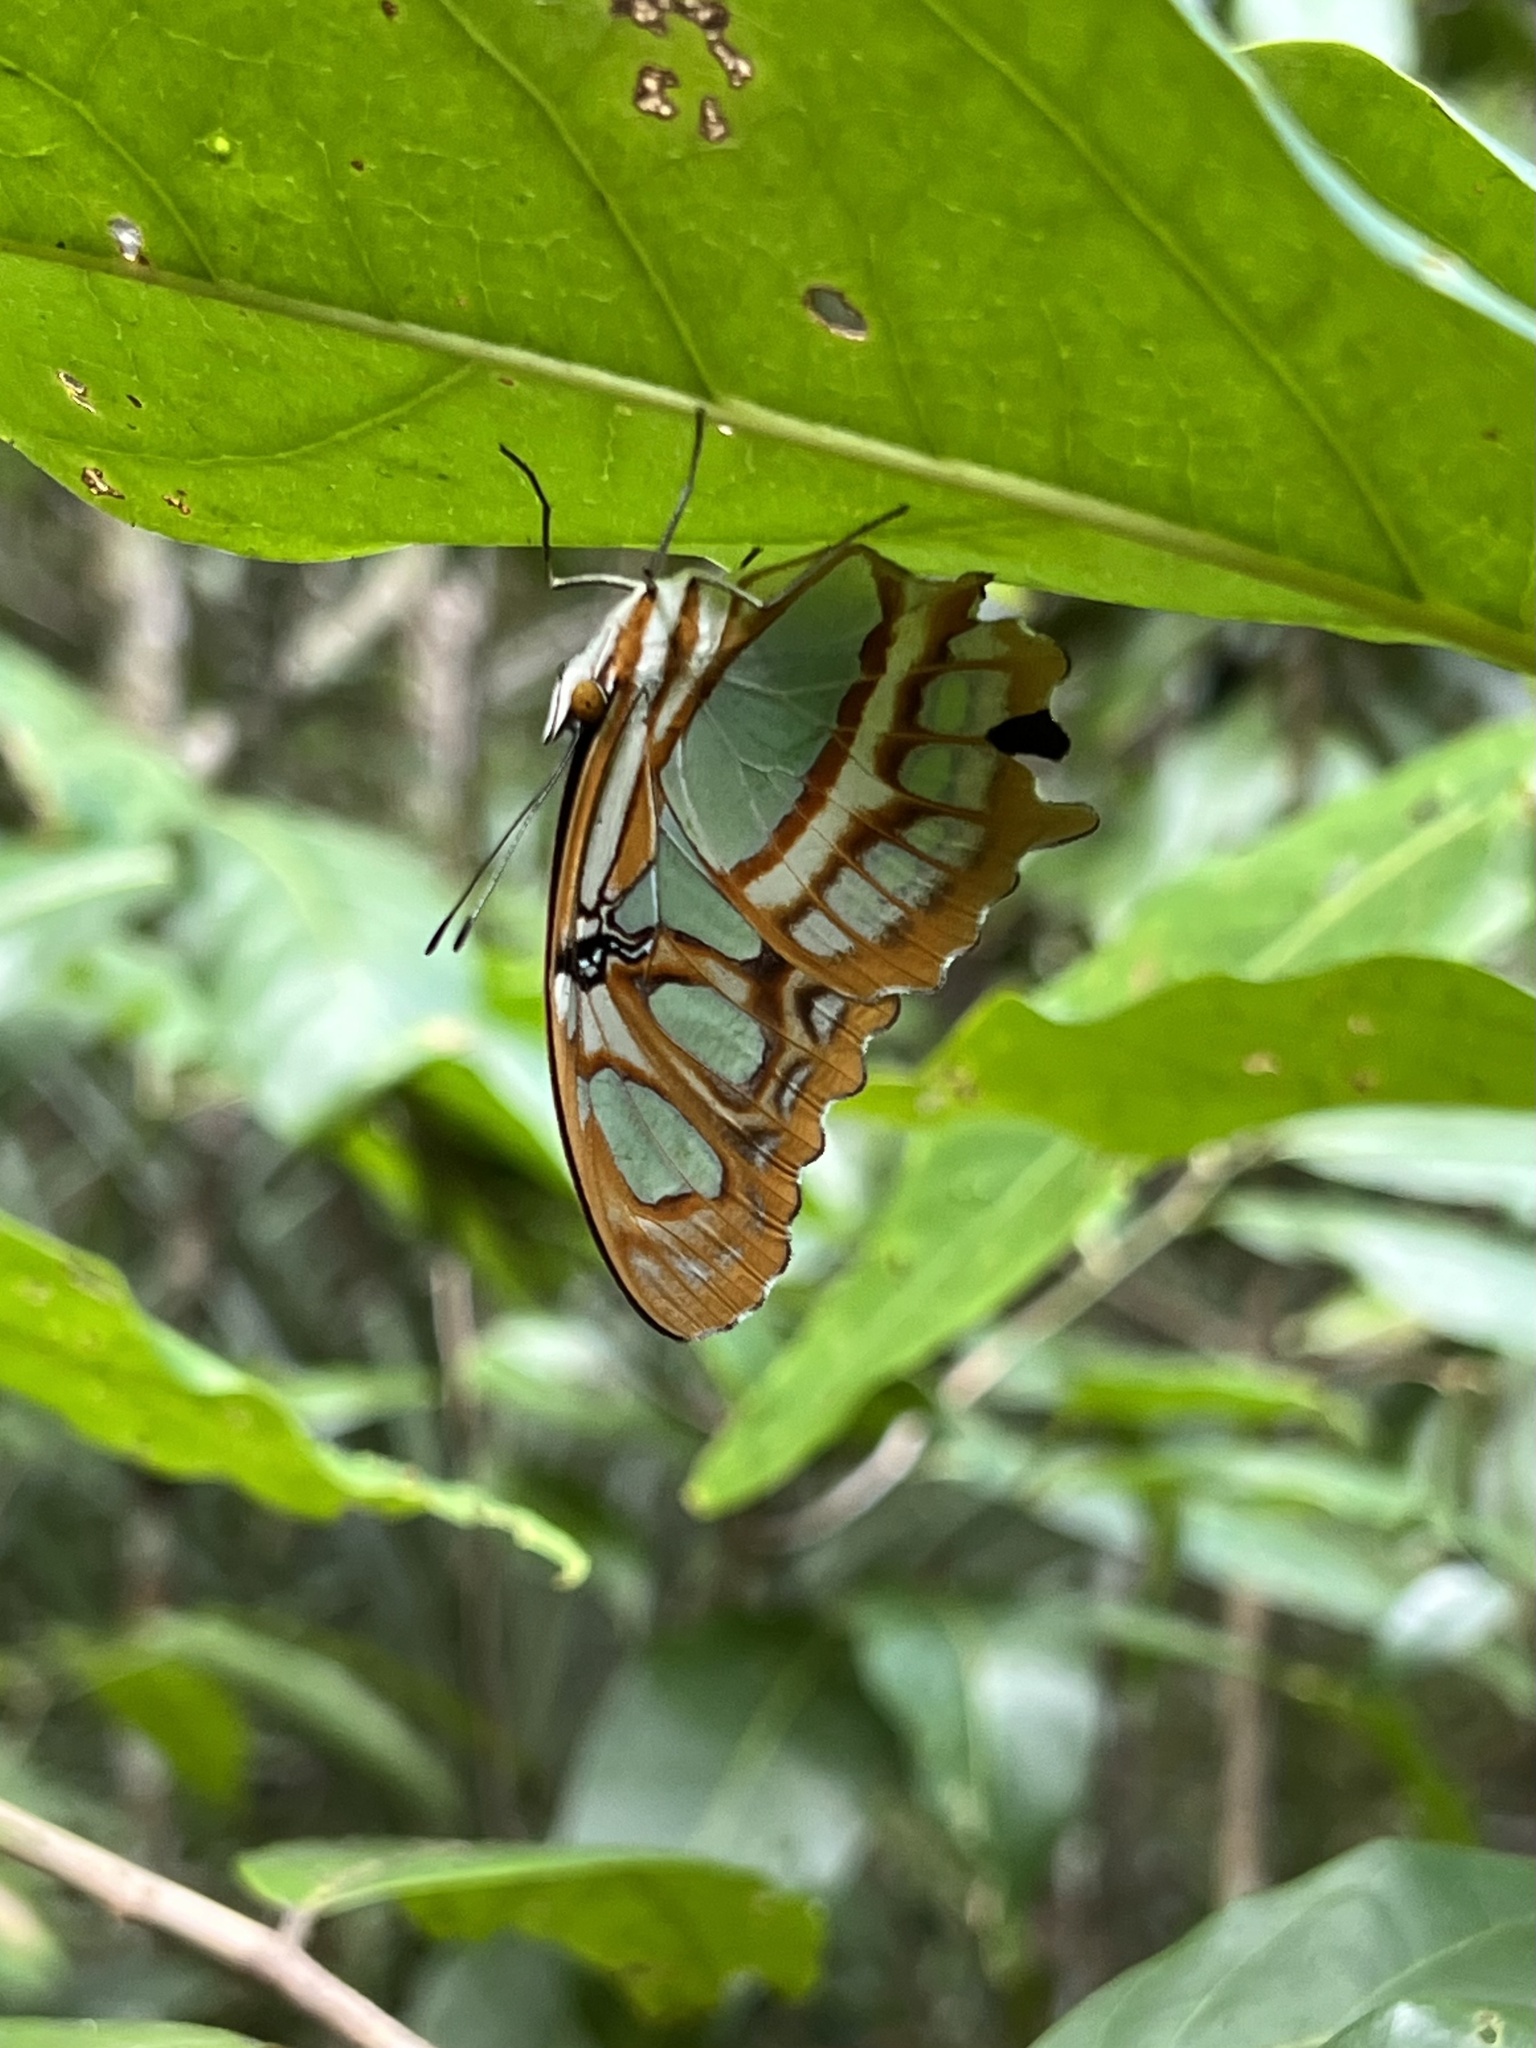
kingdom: Animalia
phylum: Arthropoda
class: Insecta
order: Lepidoptera
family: Nymphalidae
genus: Siproeta
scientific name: Siproeta stelenes
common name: Malachite
